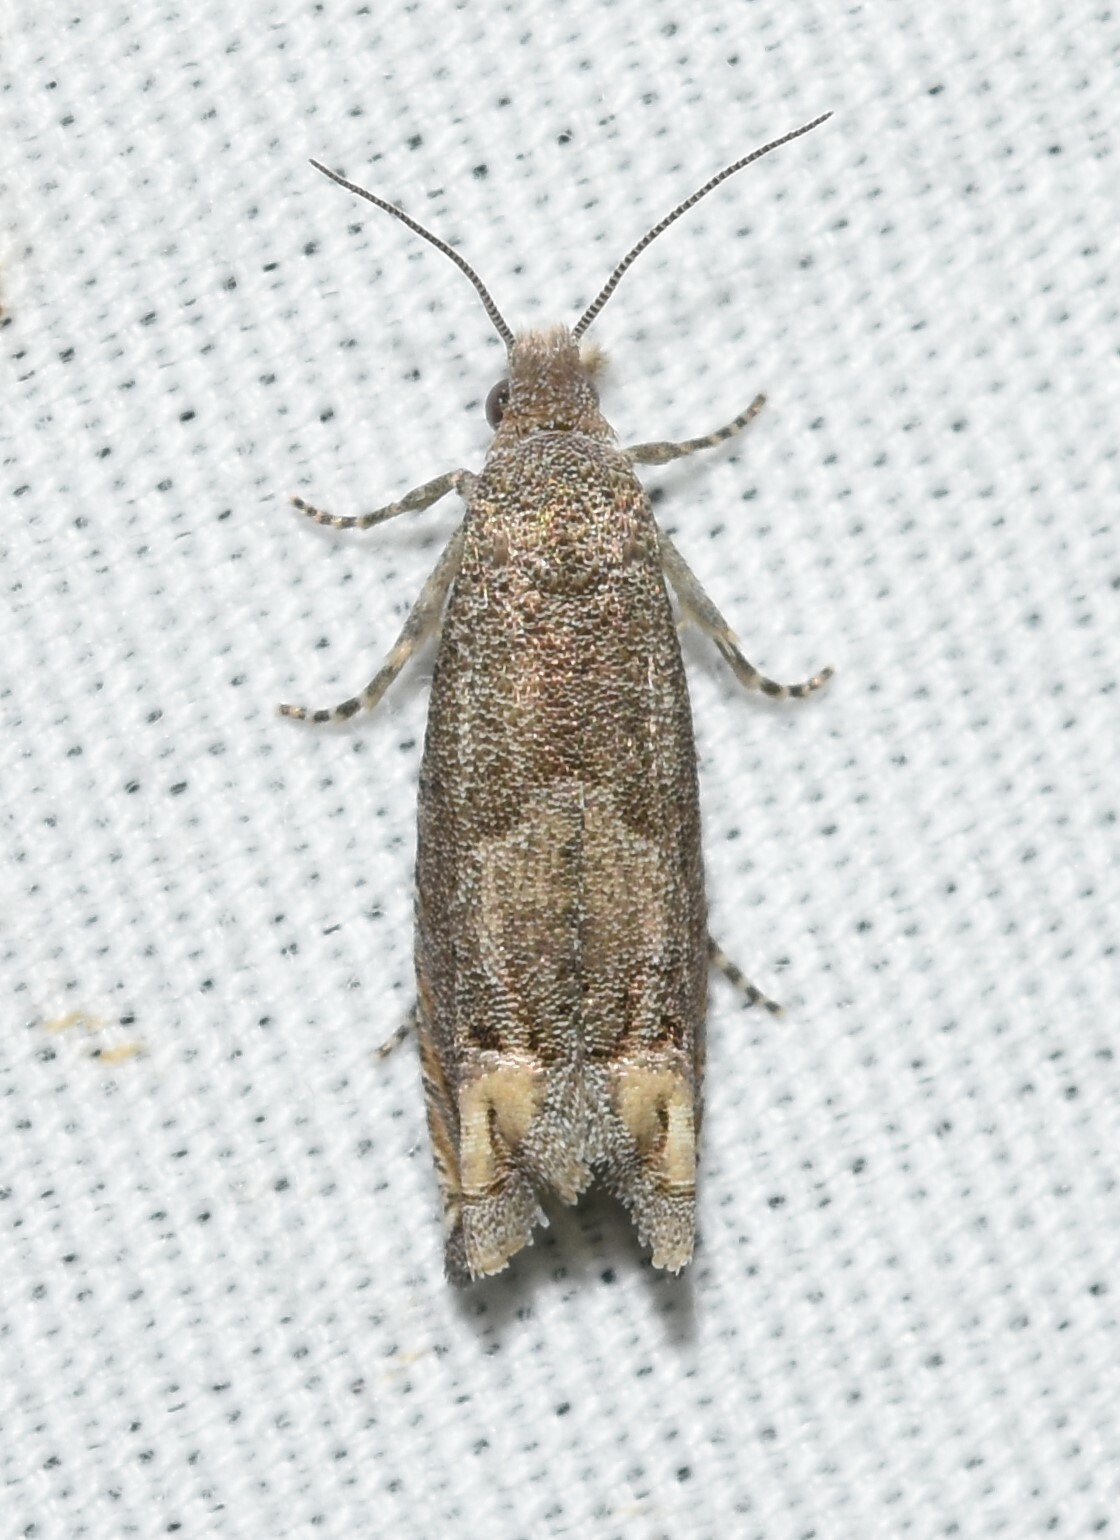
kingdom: Animalia
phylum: Arthropoda
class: Insecta
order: Lepidoptera
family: Tortricidae
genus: Epiblema
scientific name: Epiblema strenuana
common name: Ragweed borer moth
